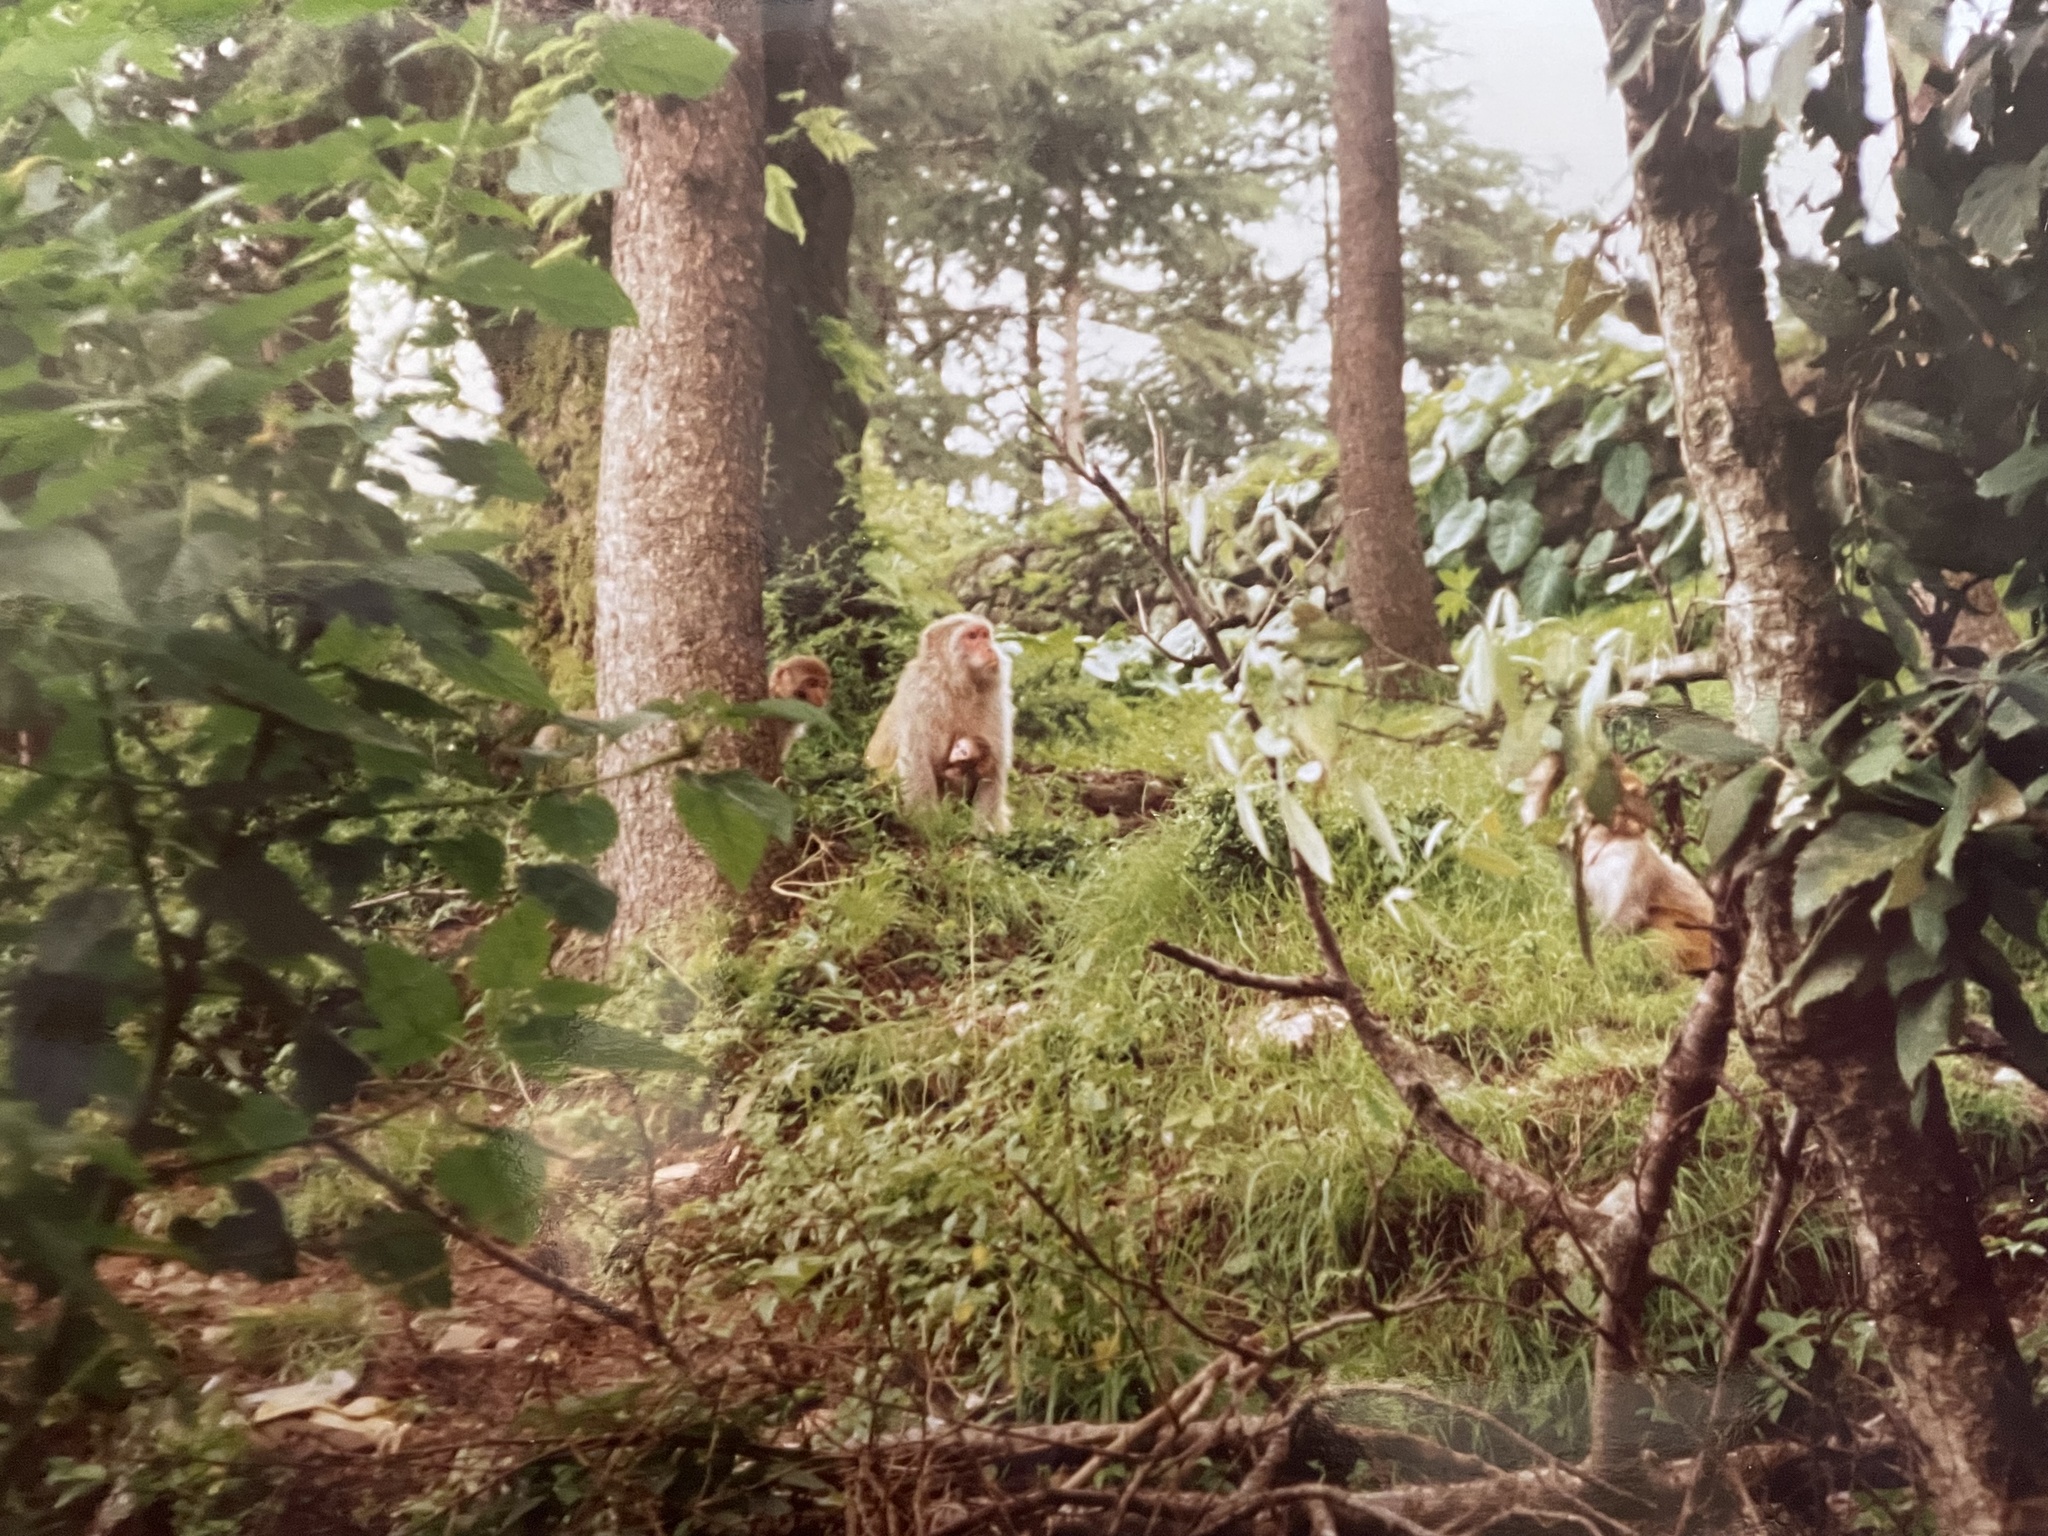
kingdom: Animalia
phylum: Chordata
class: Mammalia
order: Primates
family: Cercopithecidae
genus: Macaca
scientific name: Macaca mulatta
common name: Rhesus monkey
